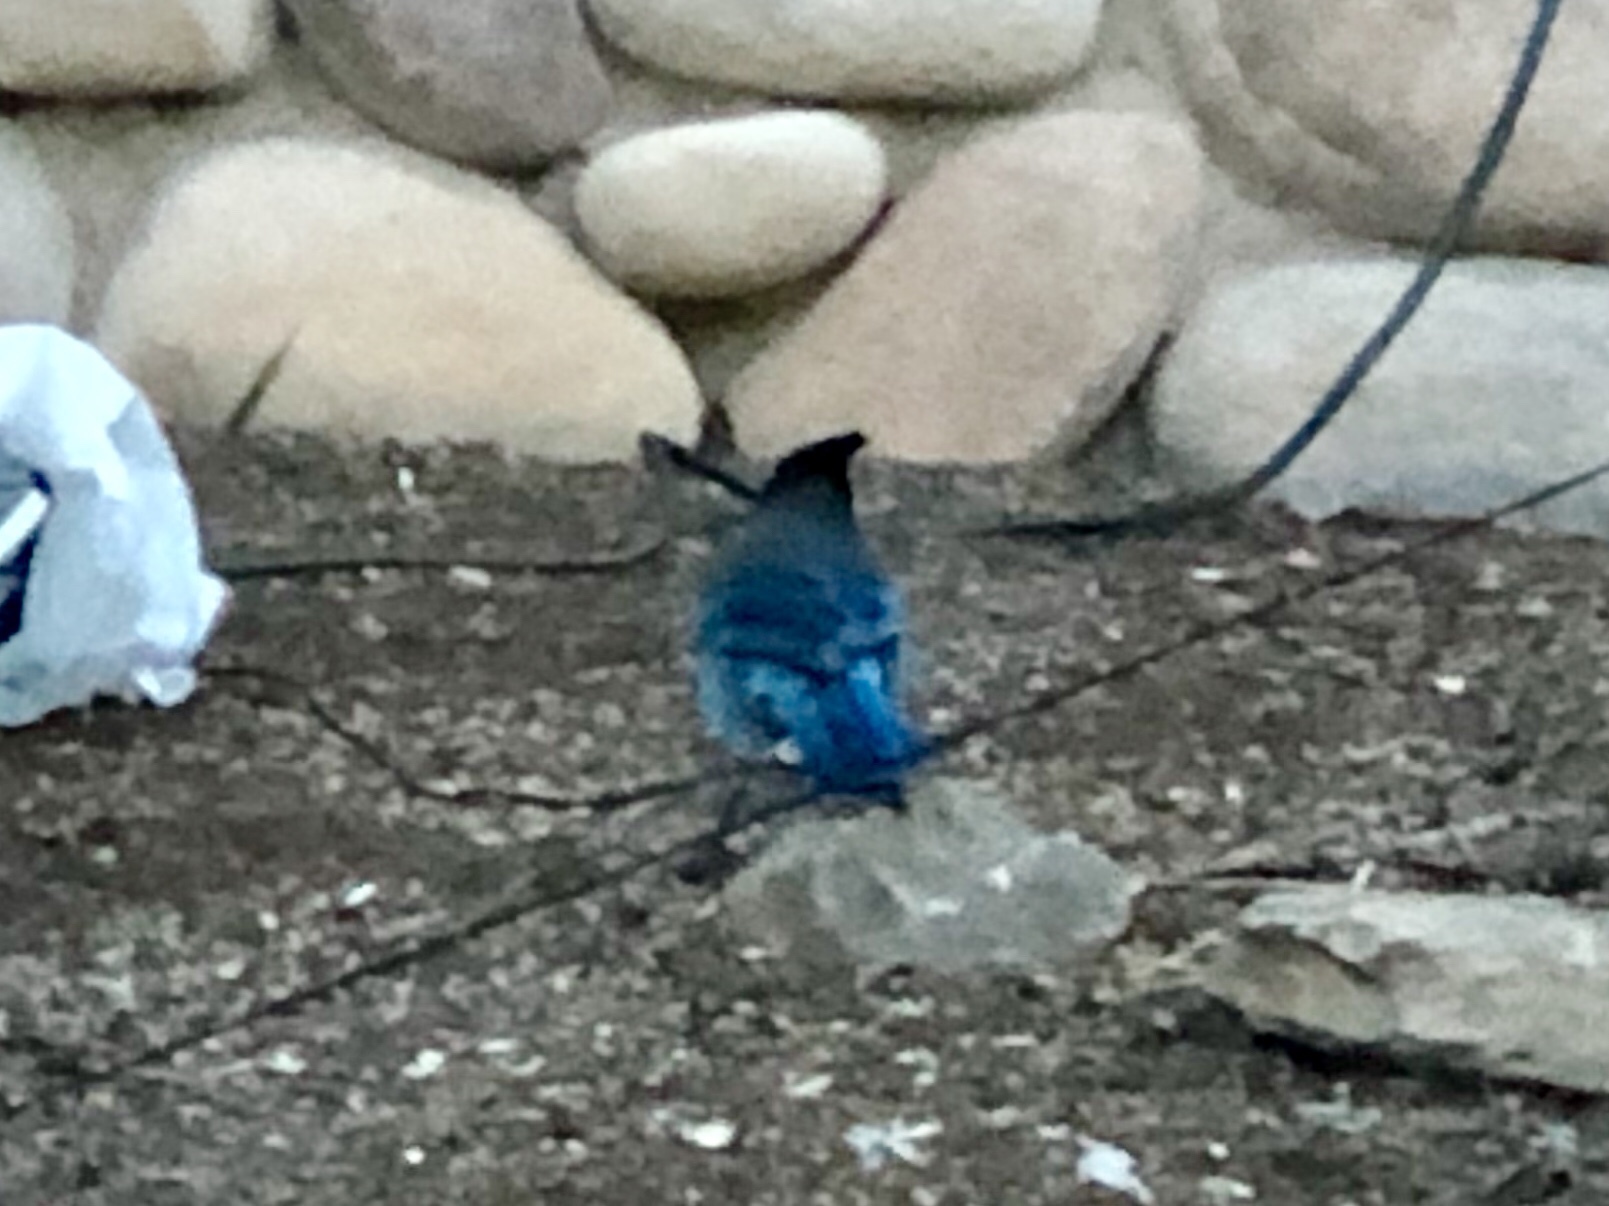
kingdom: Animalia
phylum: Chordata
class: Aves
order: Passeriformes
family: Corvidae
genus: Cyanocitta
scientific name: Cyanocitta stelleri
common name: Steller's jay
